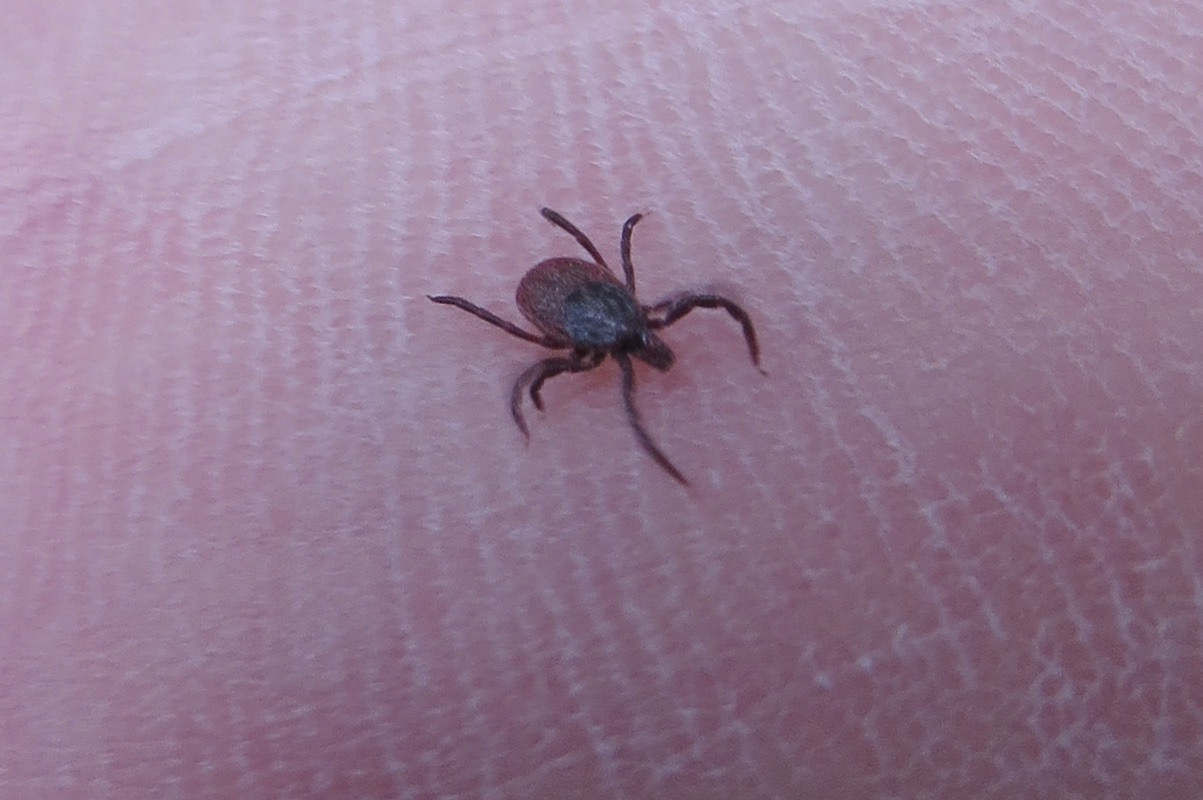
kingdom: Animalia
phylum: Arthropoda
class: Arachnida
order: Ixodida
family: Ixodidae
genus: Ixodes
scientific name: Ixodes pacificus
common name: California black-legged tick
